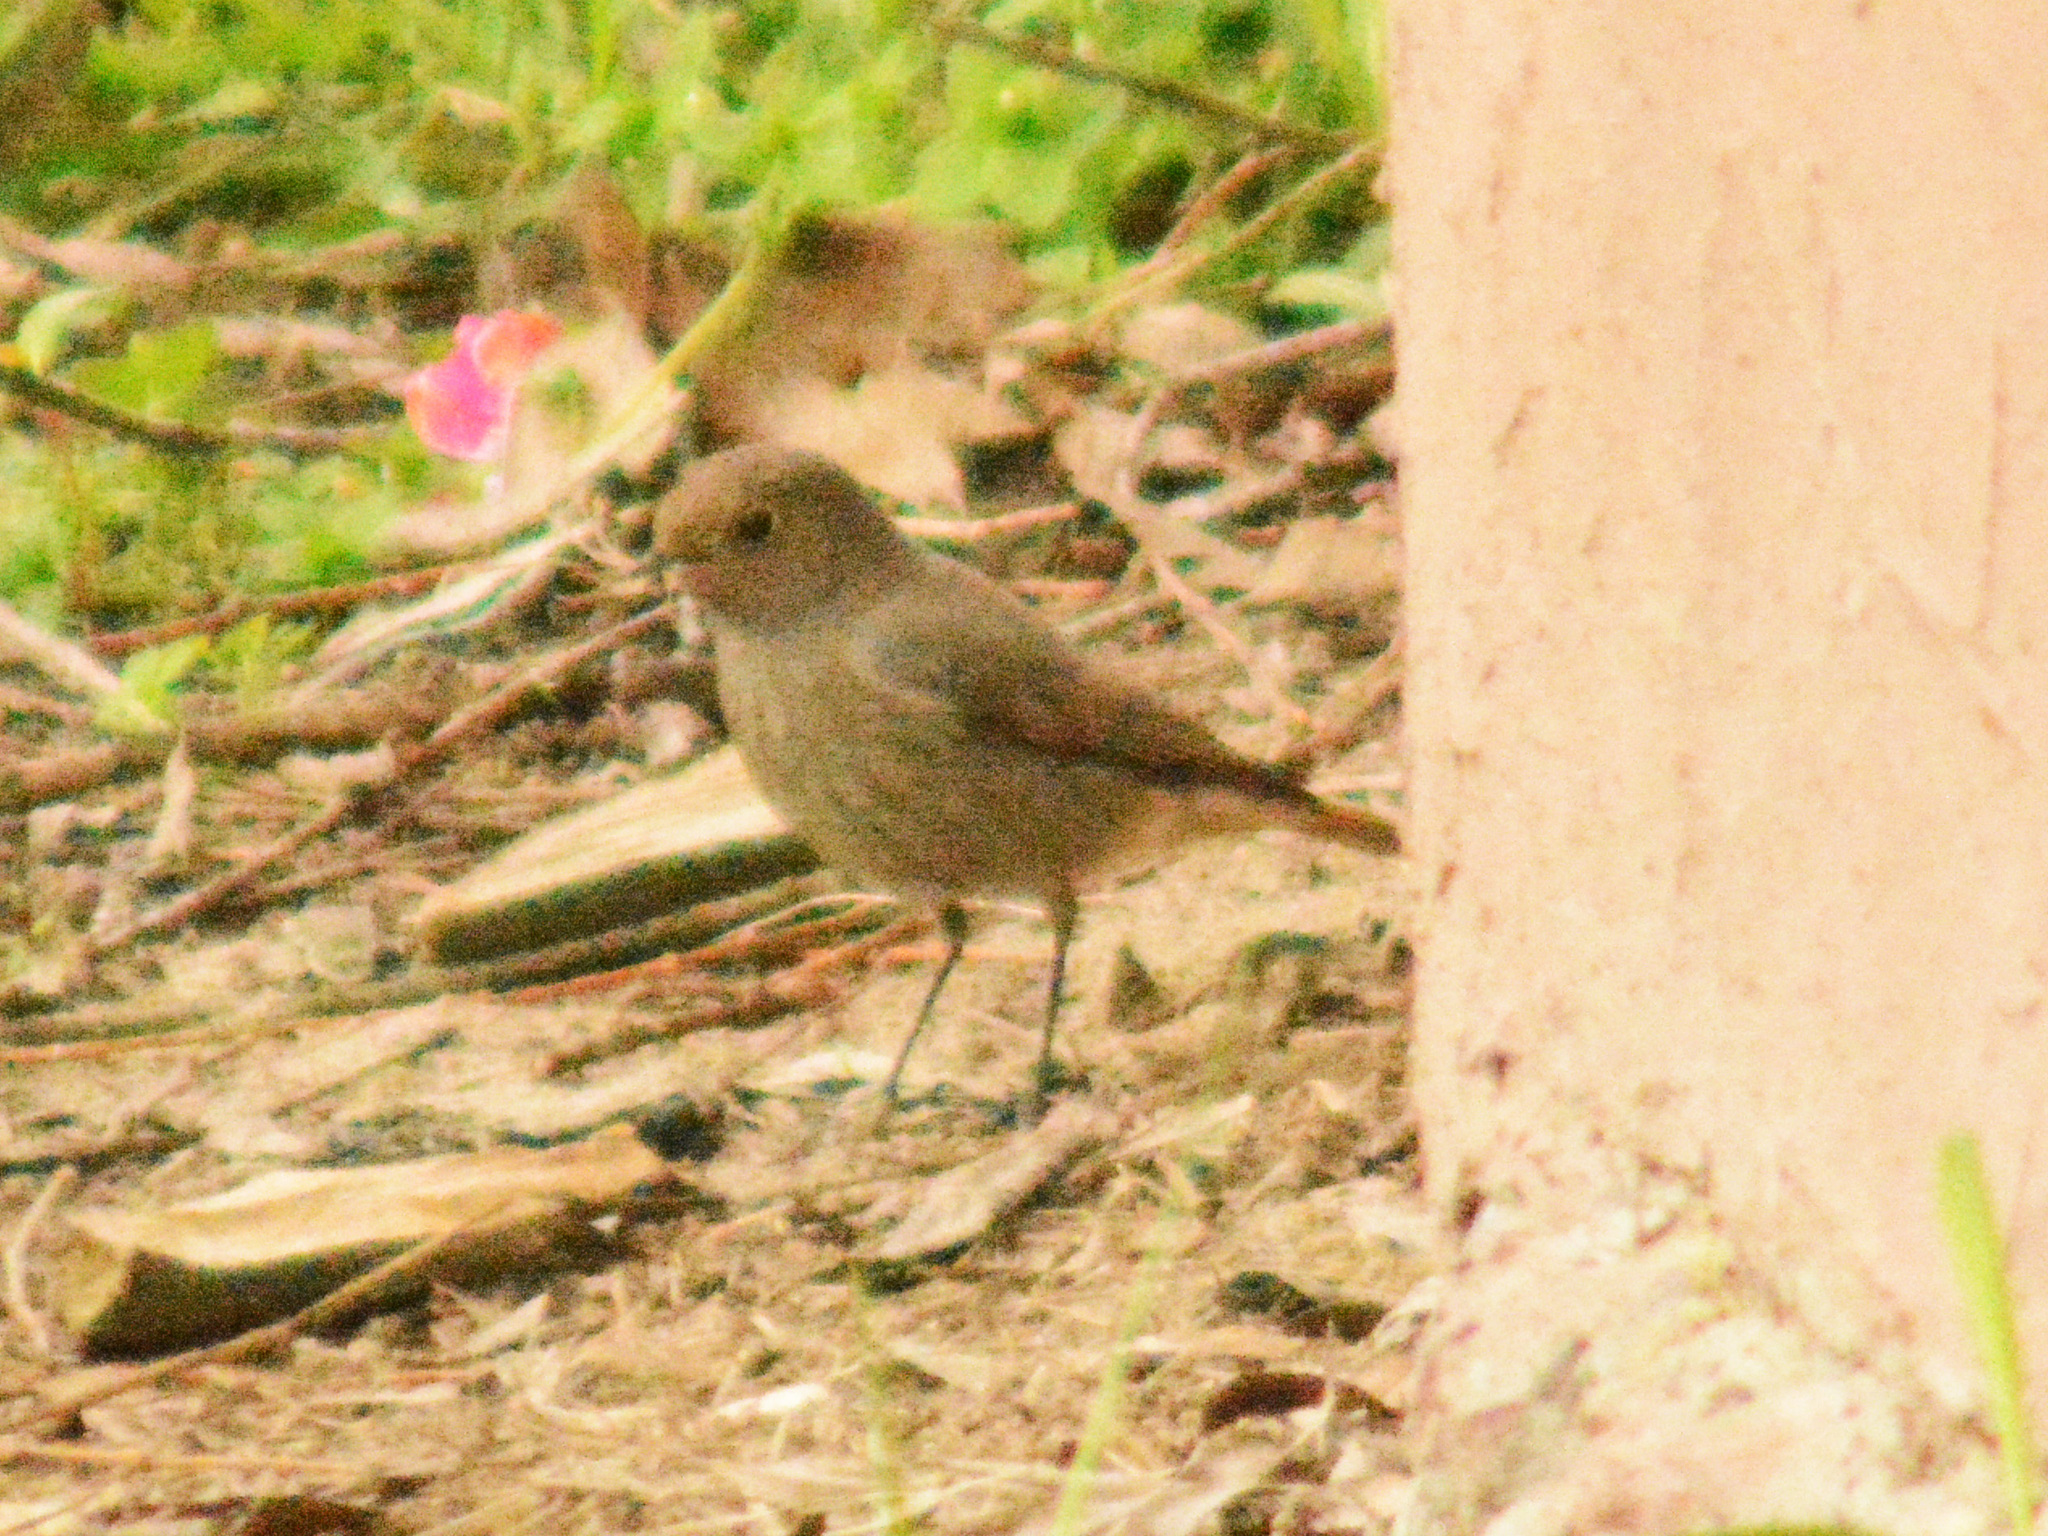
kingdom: Animalia
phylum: Chordata
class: Aves
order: Passeriformes
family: Muscicapidae
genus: Phoenicurus
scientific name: Phoenicurus ochruros
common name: Black redstart
